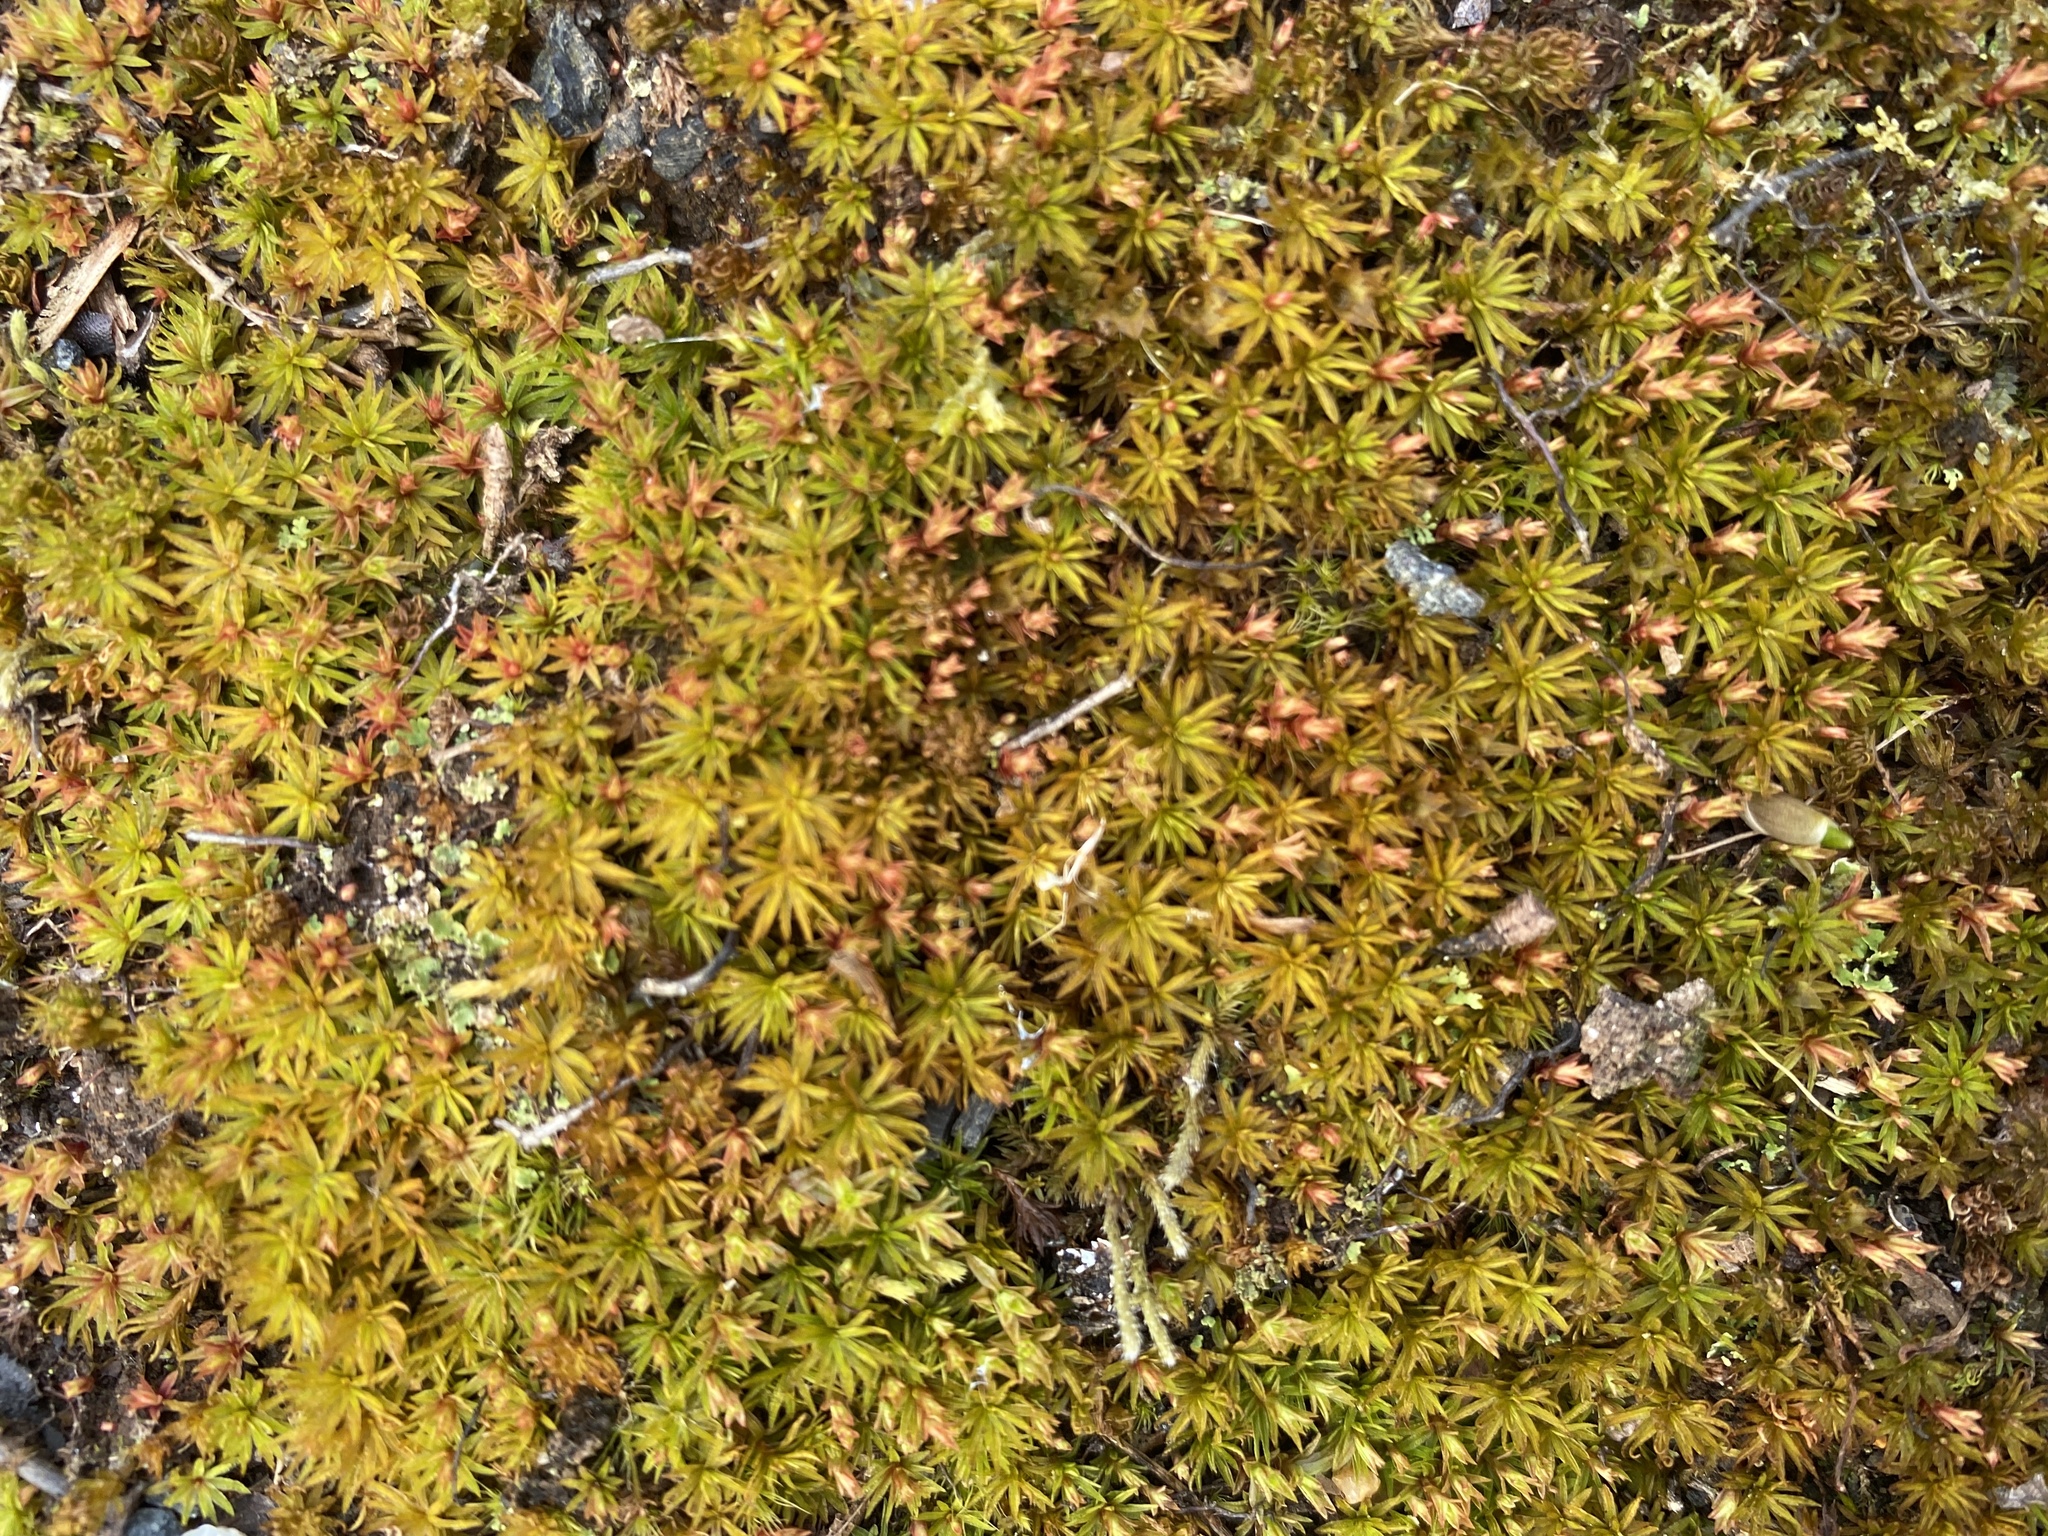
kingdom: Plantae
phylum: Bryophyta
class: Polytrichopsida
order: Polytrichales
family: Polytrichaceae
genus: Atrichum
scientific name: Atrichum angustatum
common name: Lesser smoothcap
